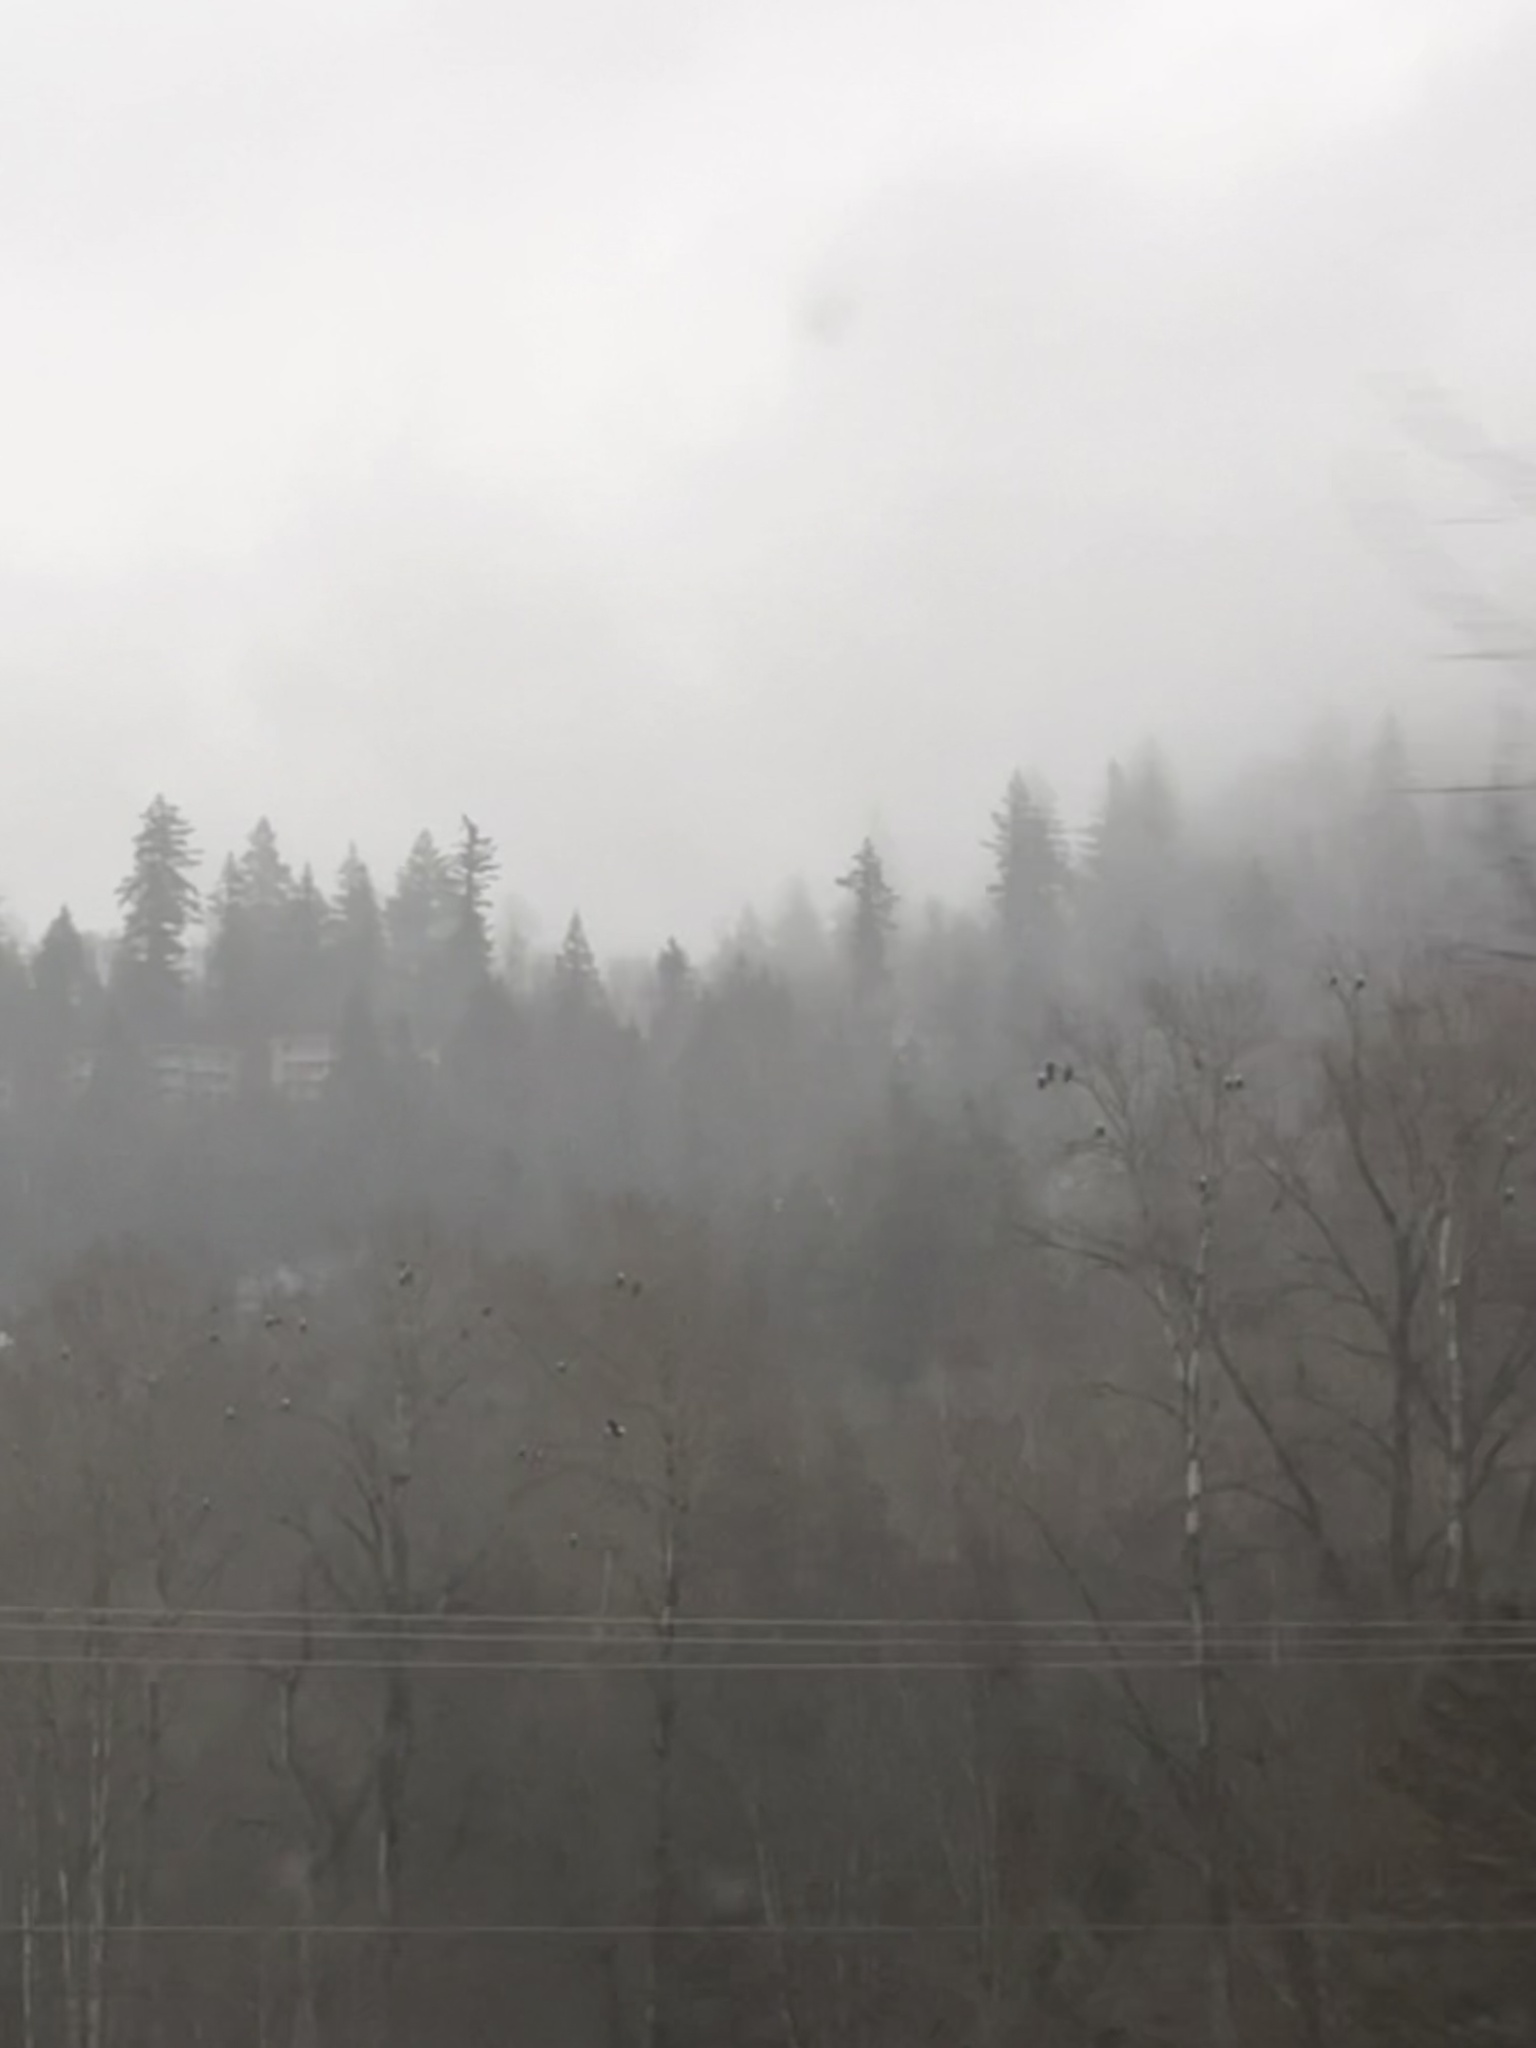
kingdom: Animalia
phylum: Chordata
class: Aves
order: Accipitriformes
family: Accipitridae
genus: Haliaeetus
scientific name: Haliaeetus leucocephalus
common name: Bald eagle
